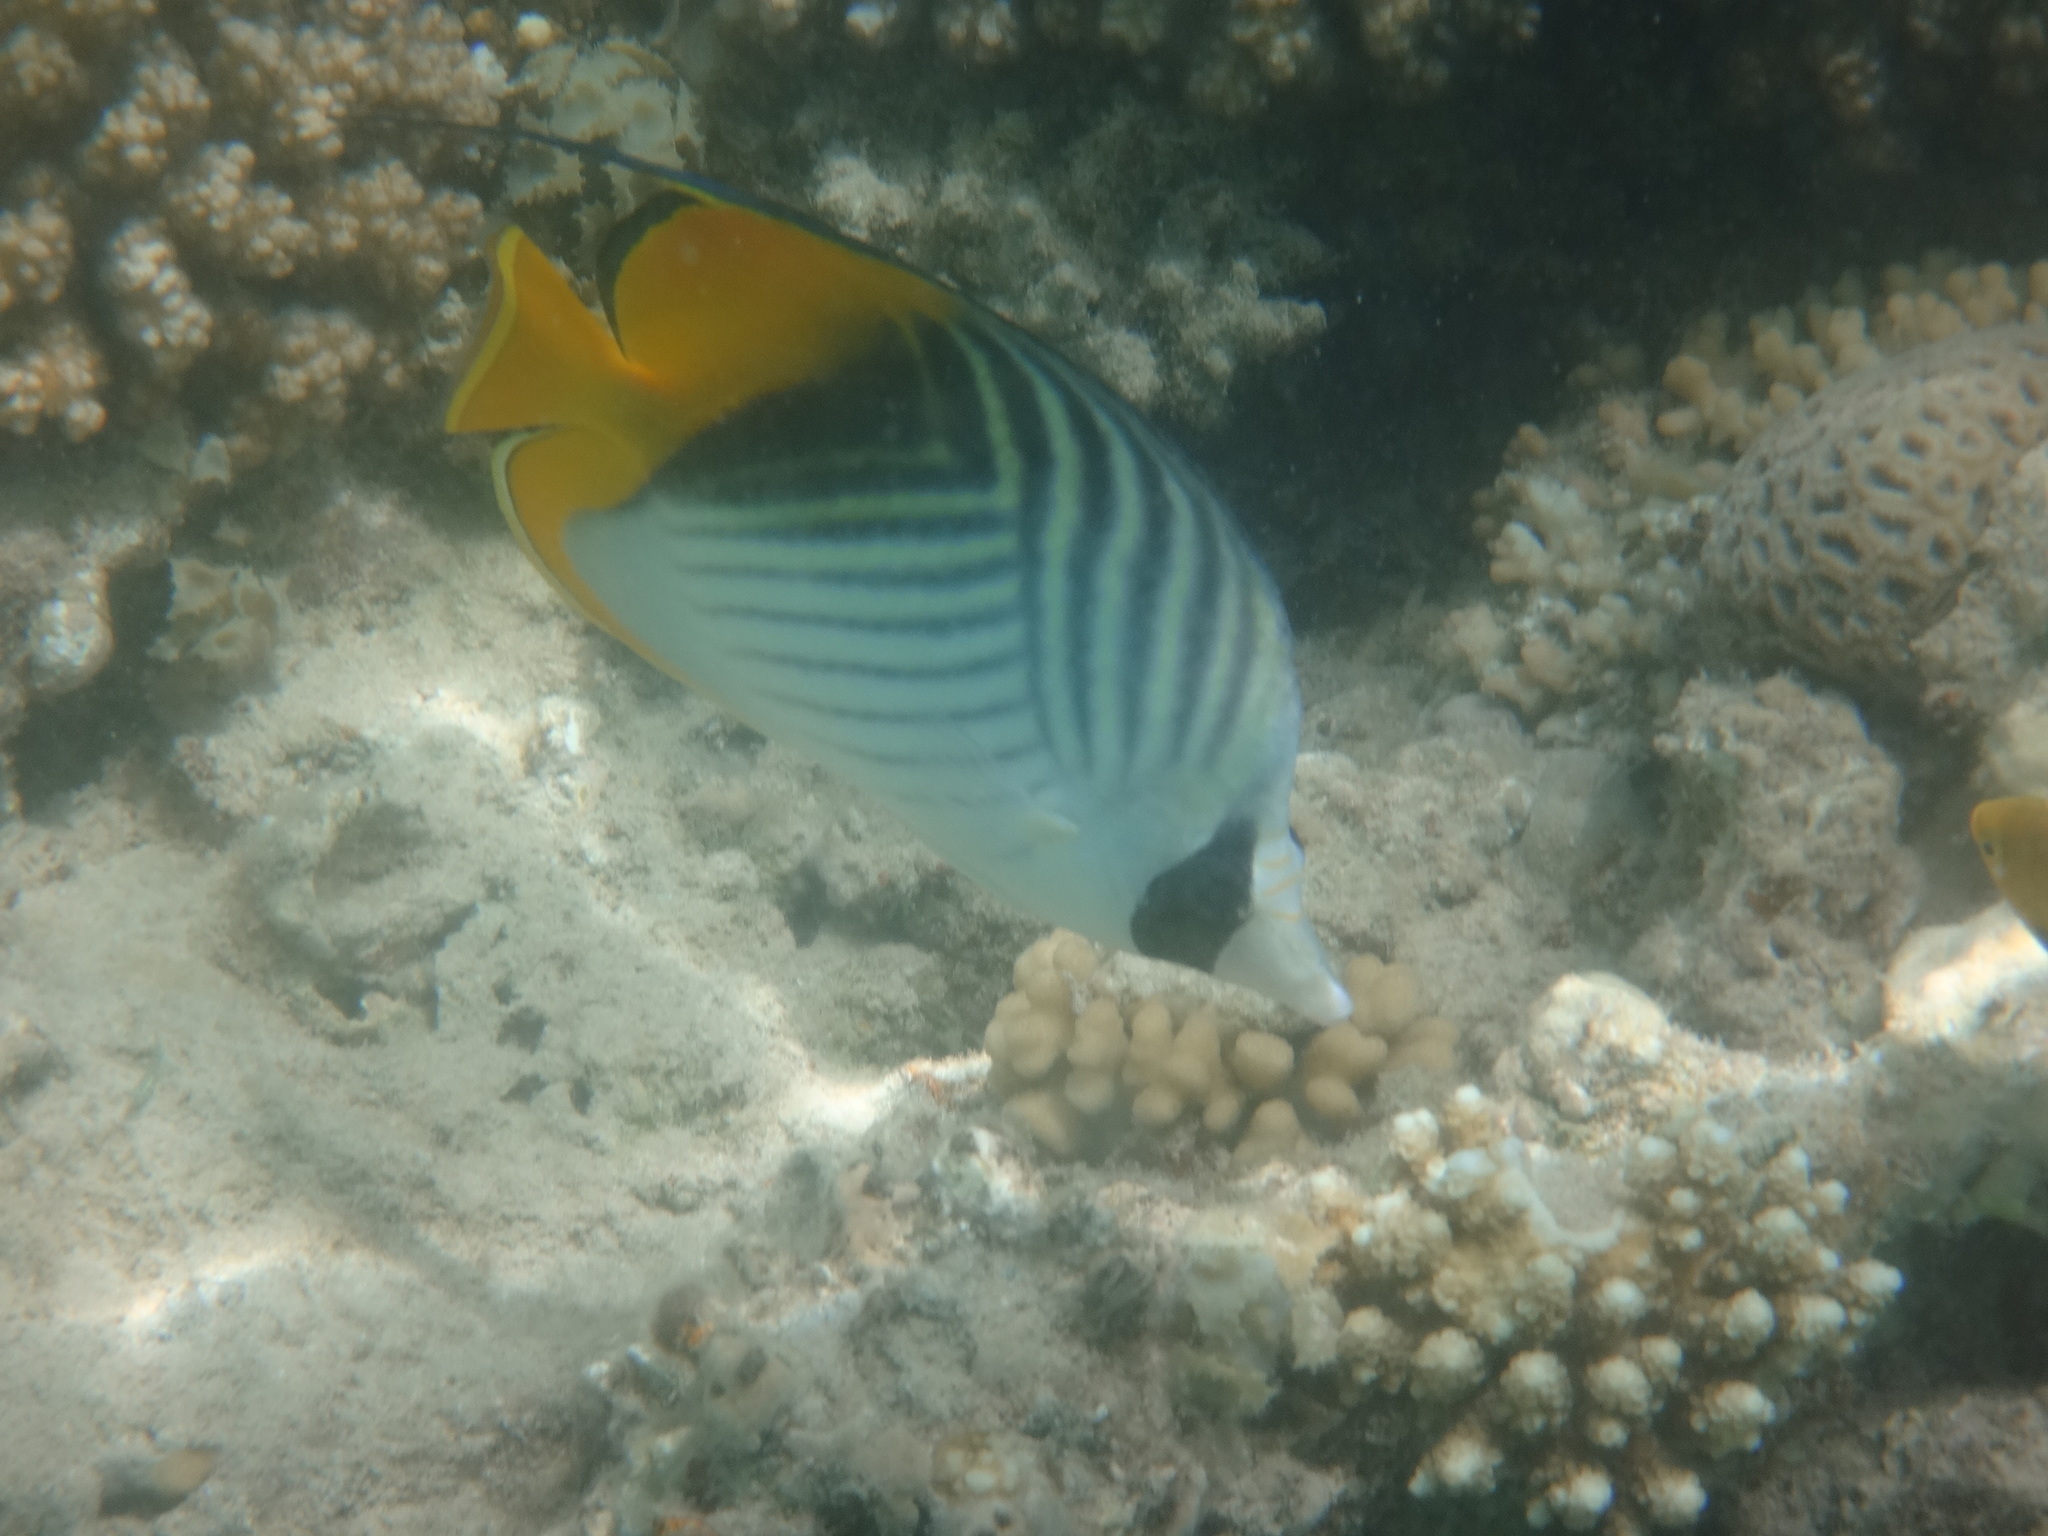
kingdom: Animalia
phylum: Chordata
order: Perciformes
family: Chaetodontidae
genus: Chaetodon
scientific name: Chaetodon auriga
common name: Threadfin butterflyfish
